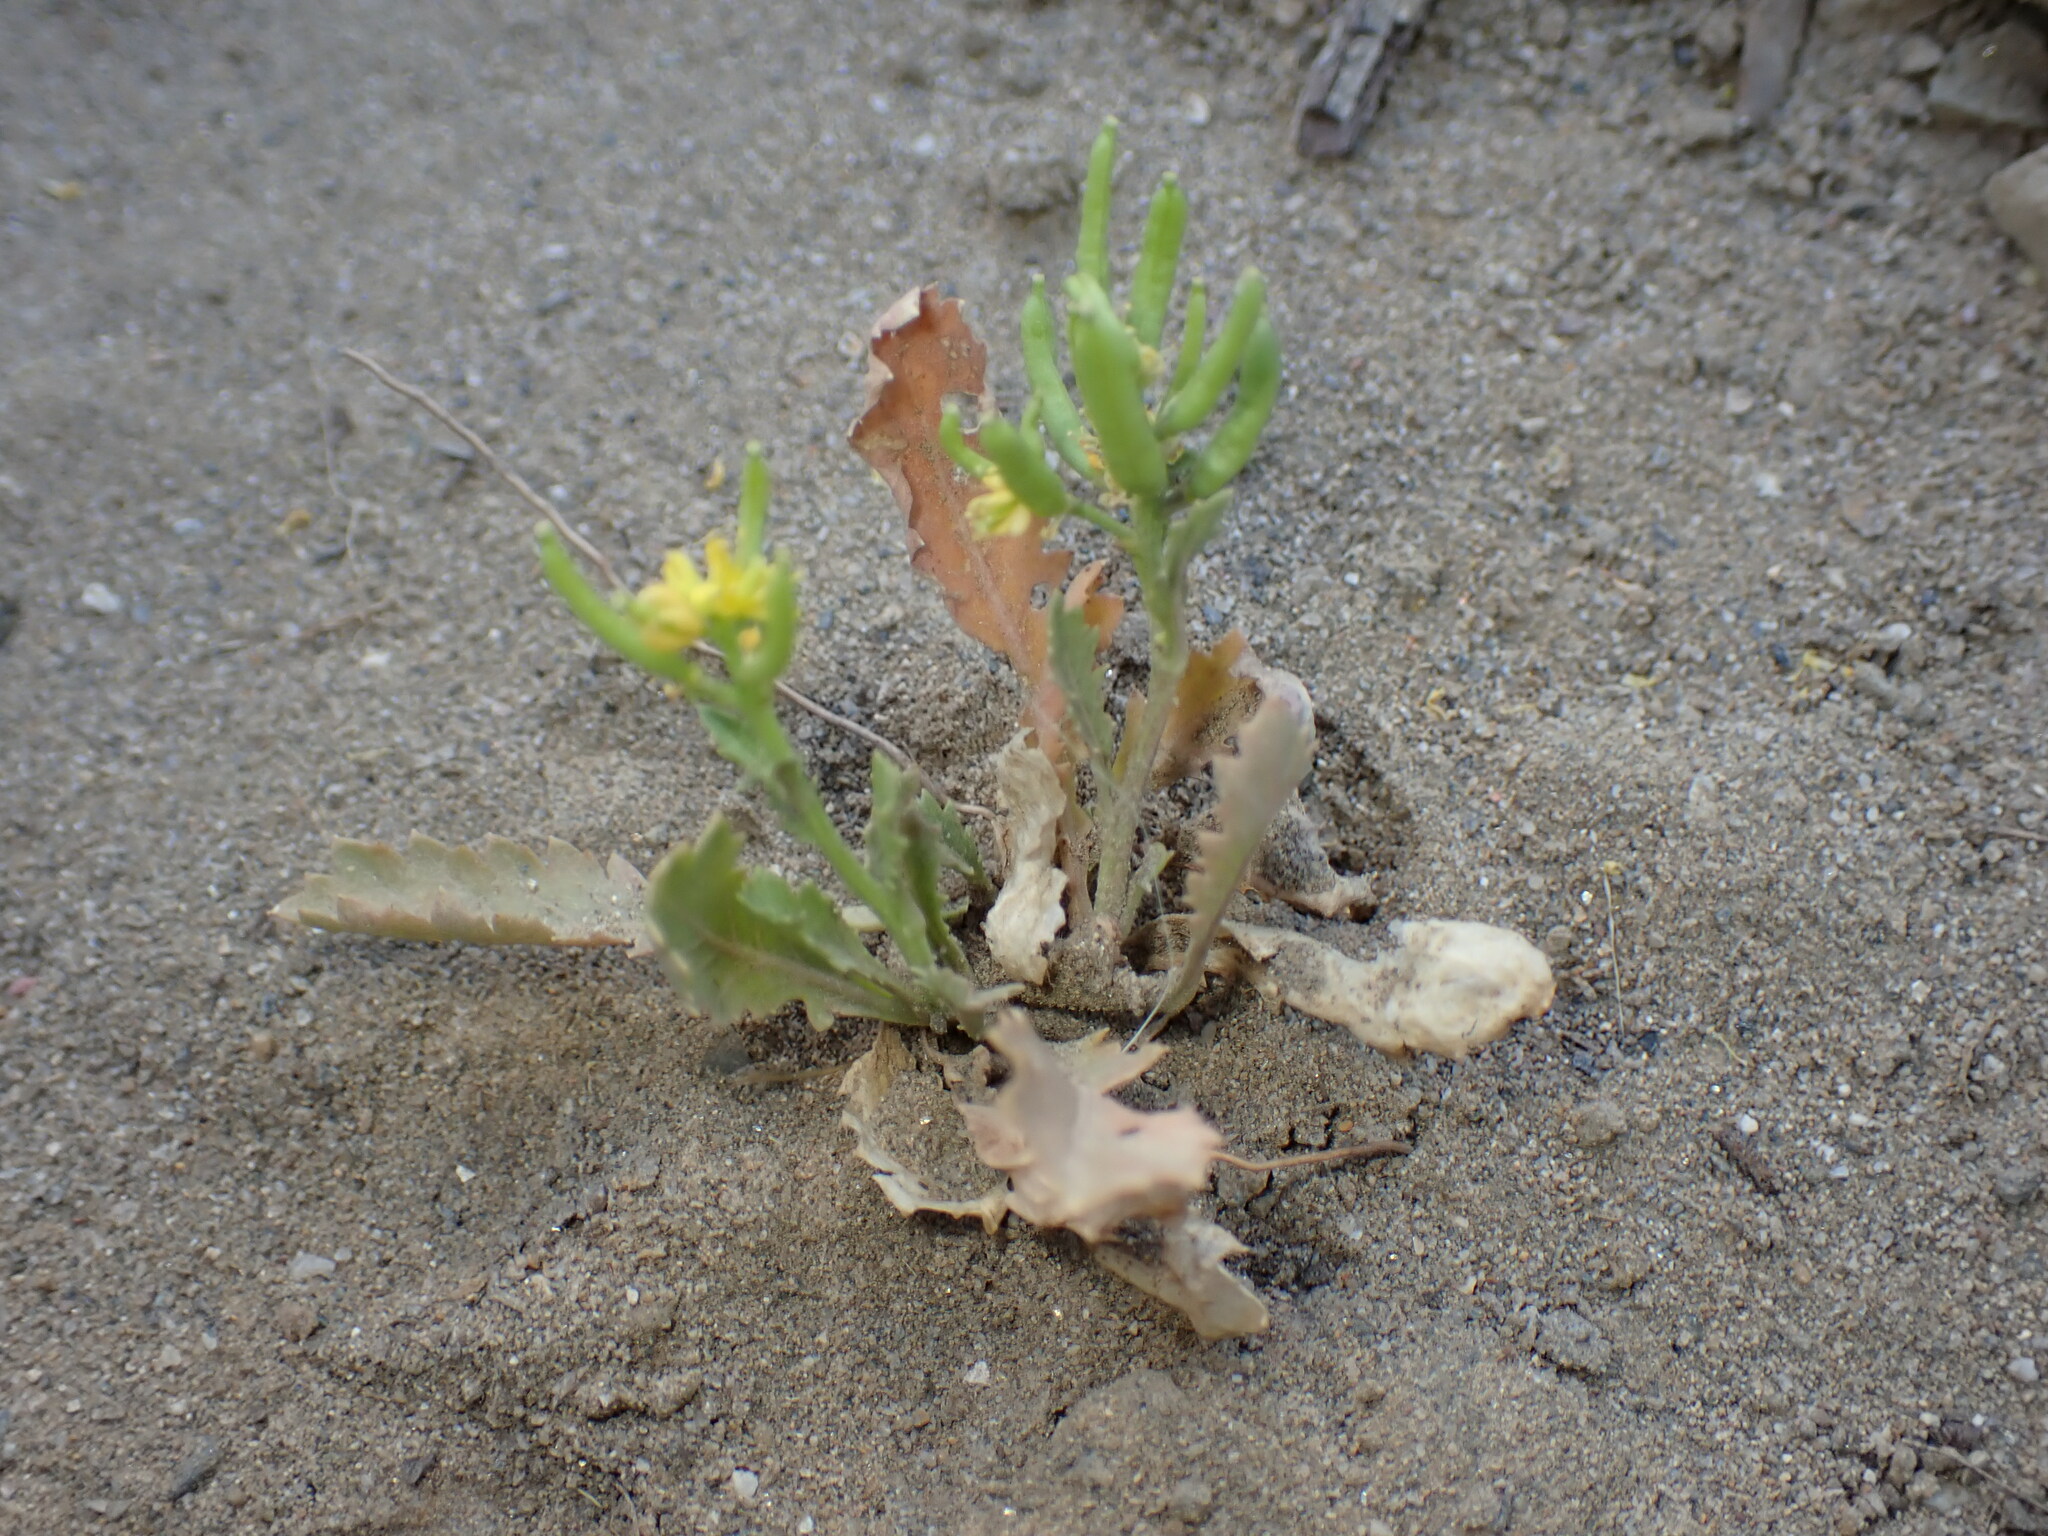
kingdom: Plantae
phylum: Tracheophyta
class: Magnoliopsida
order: Brassicales
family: Brassicaceae
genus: Rorippa
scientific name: Rorippa curvisiliqua
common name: Curve-pod yellow cress
